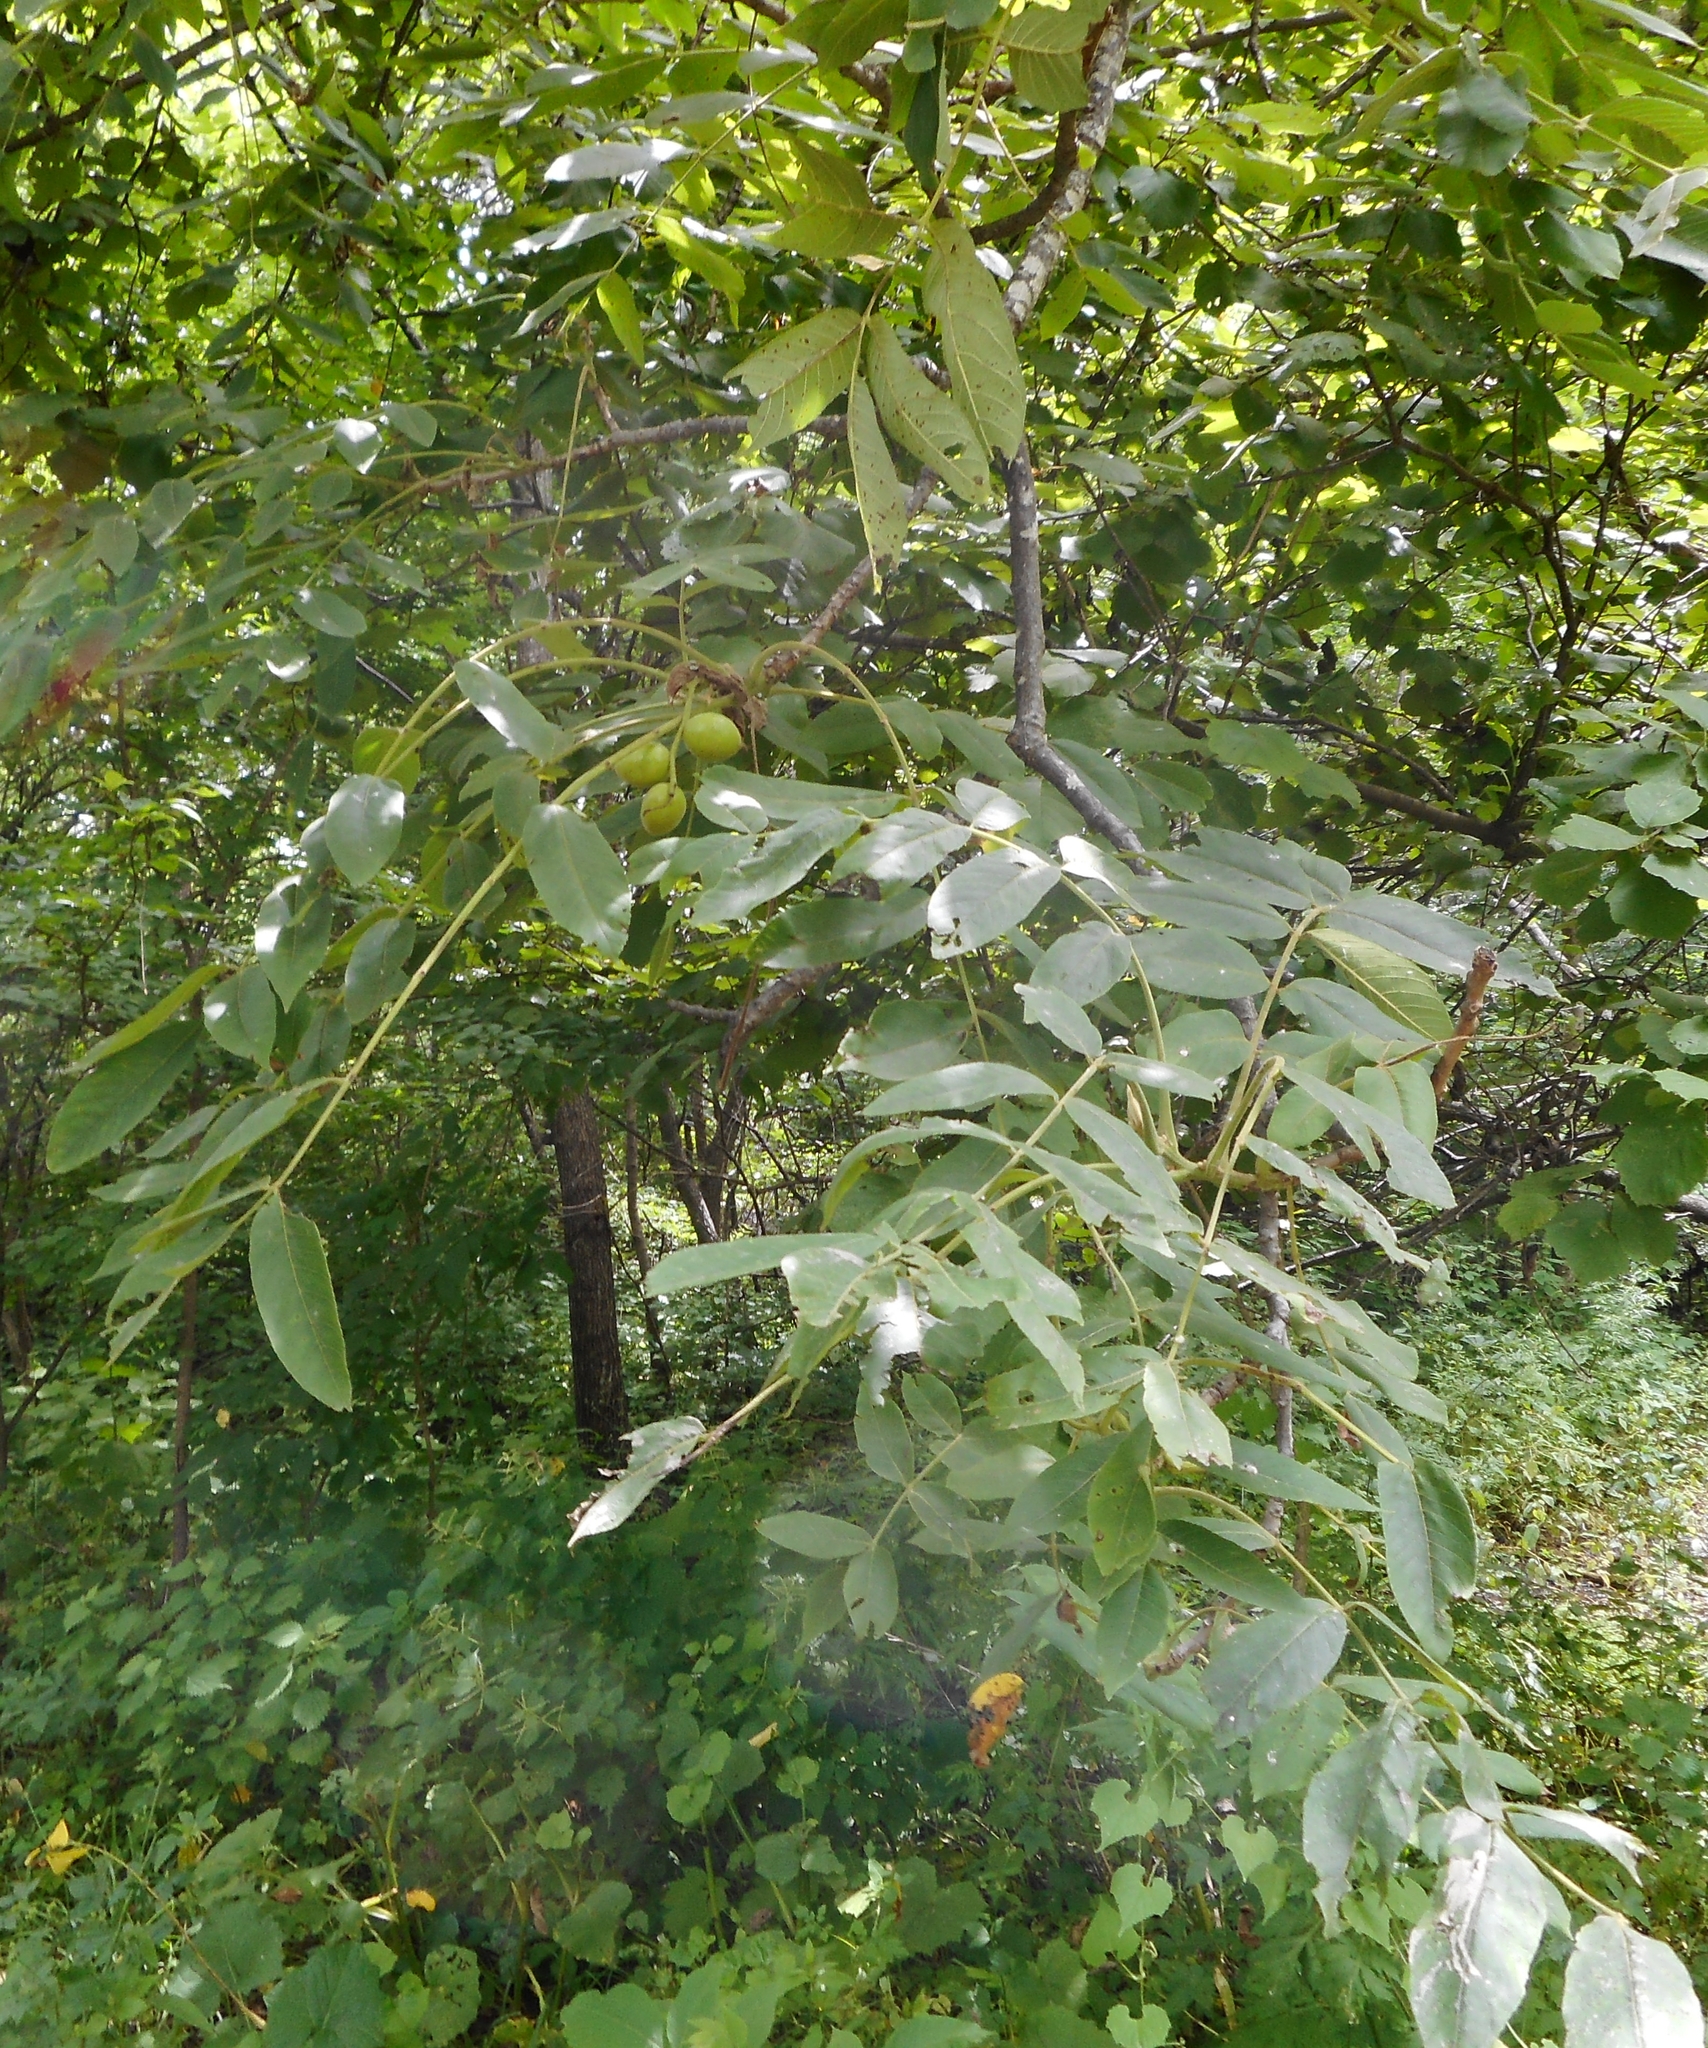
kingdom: Plantae
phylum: Tracheophyta
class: Magnoliopsida
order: Fagales
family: Juglandaceae
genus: Juglans
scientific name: Juglans mandshurica
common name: Manchurian walnut
